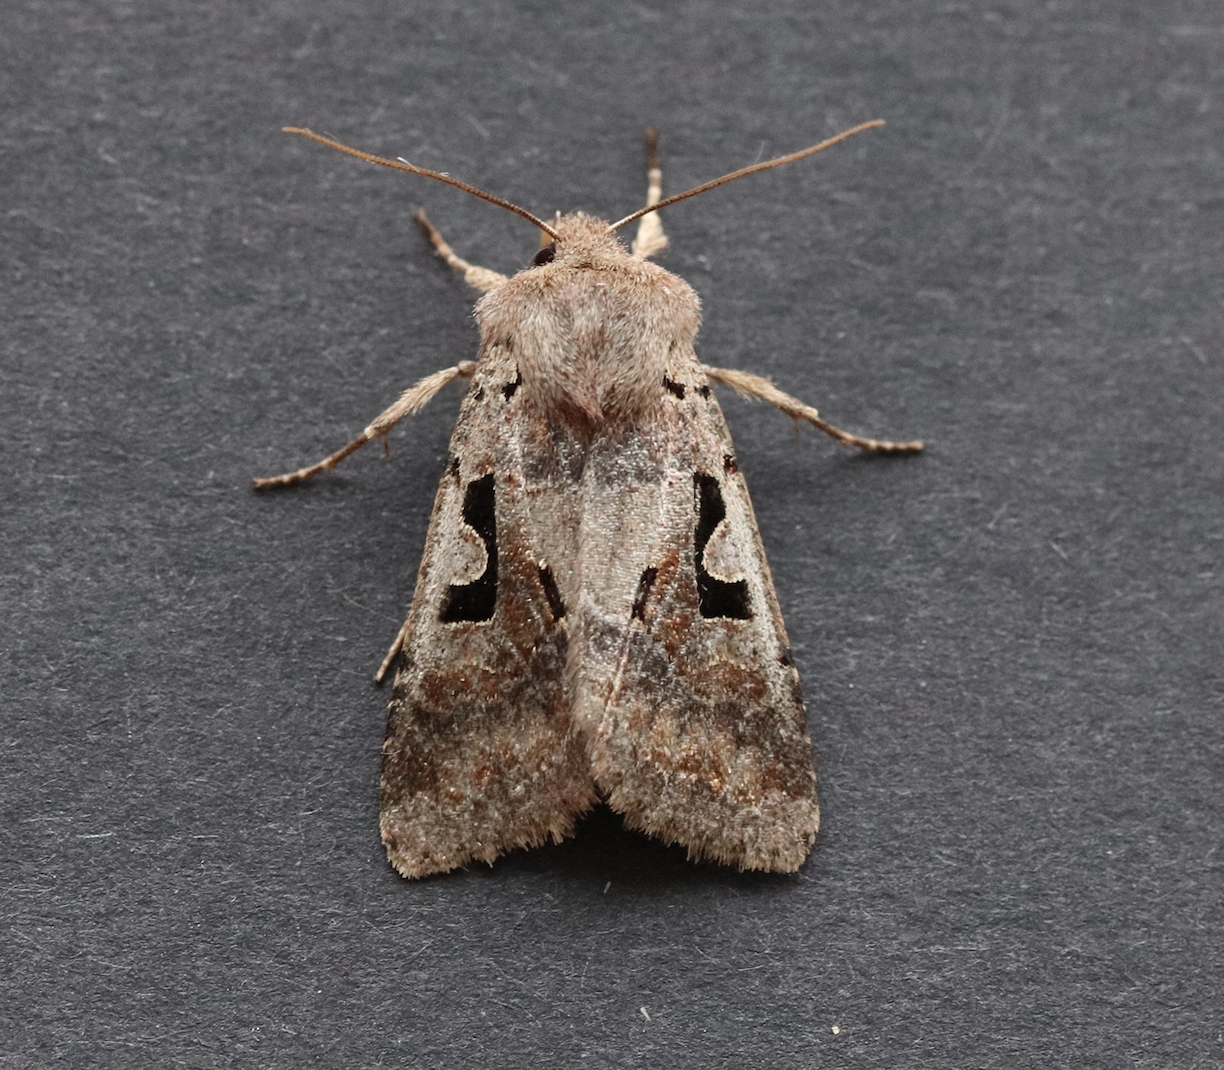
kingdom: Animalia
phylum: Arthropoda
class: Insecta
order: Lepidoptera
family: Noctuidae
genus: Orthosia
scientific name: Orthosia gothica
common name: Hebrew character
